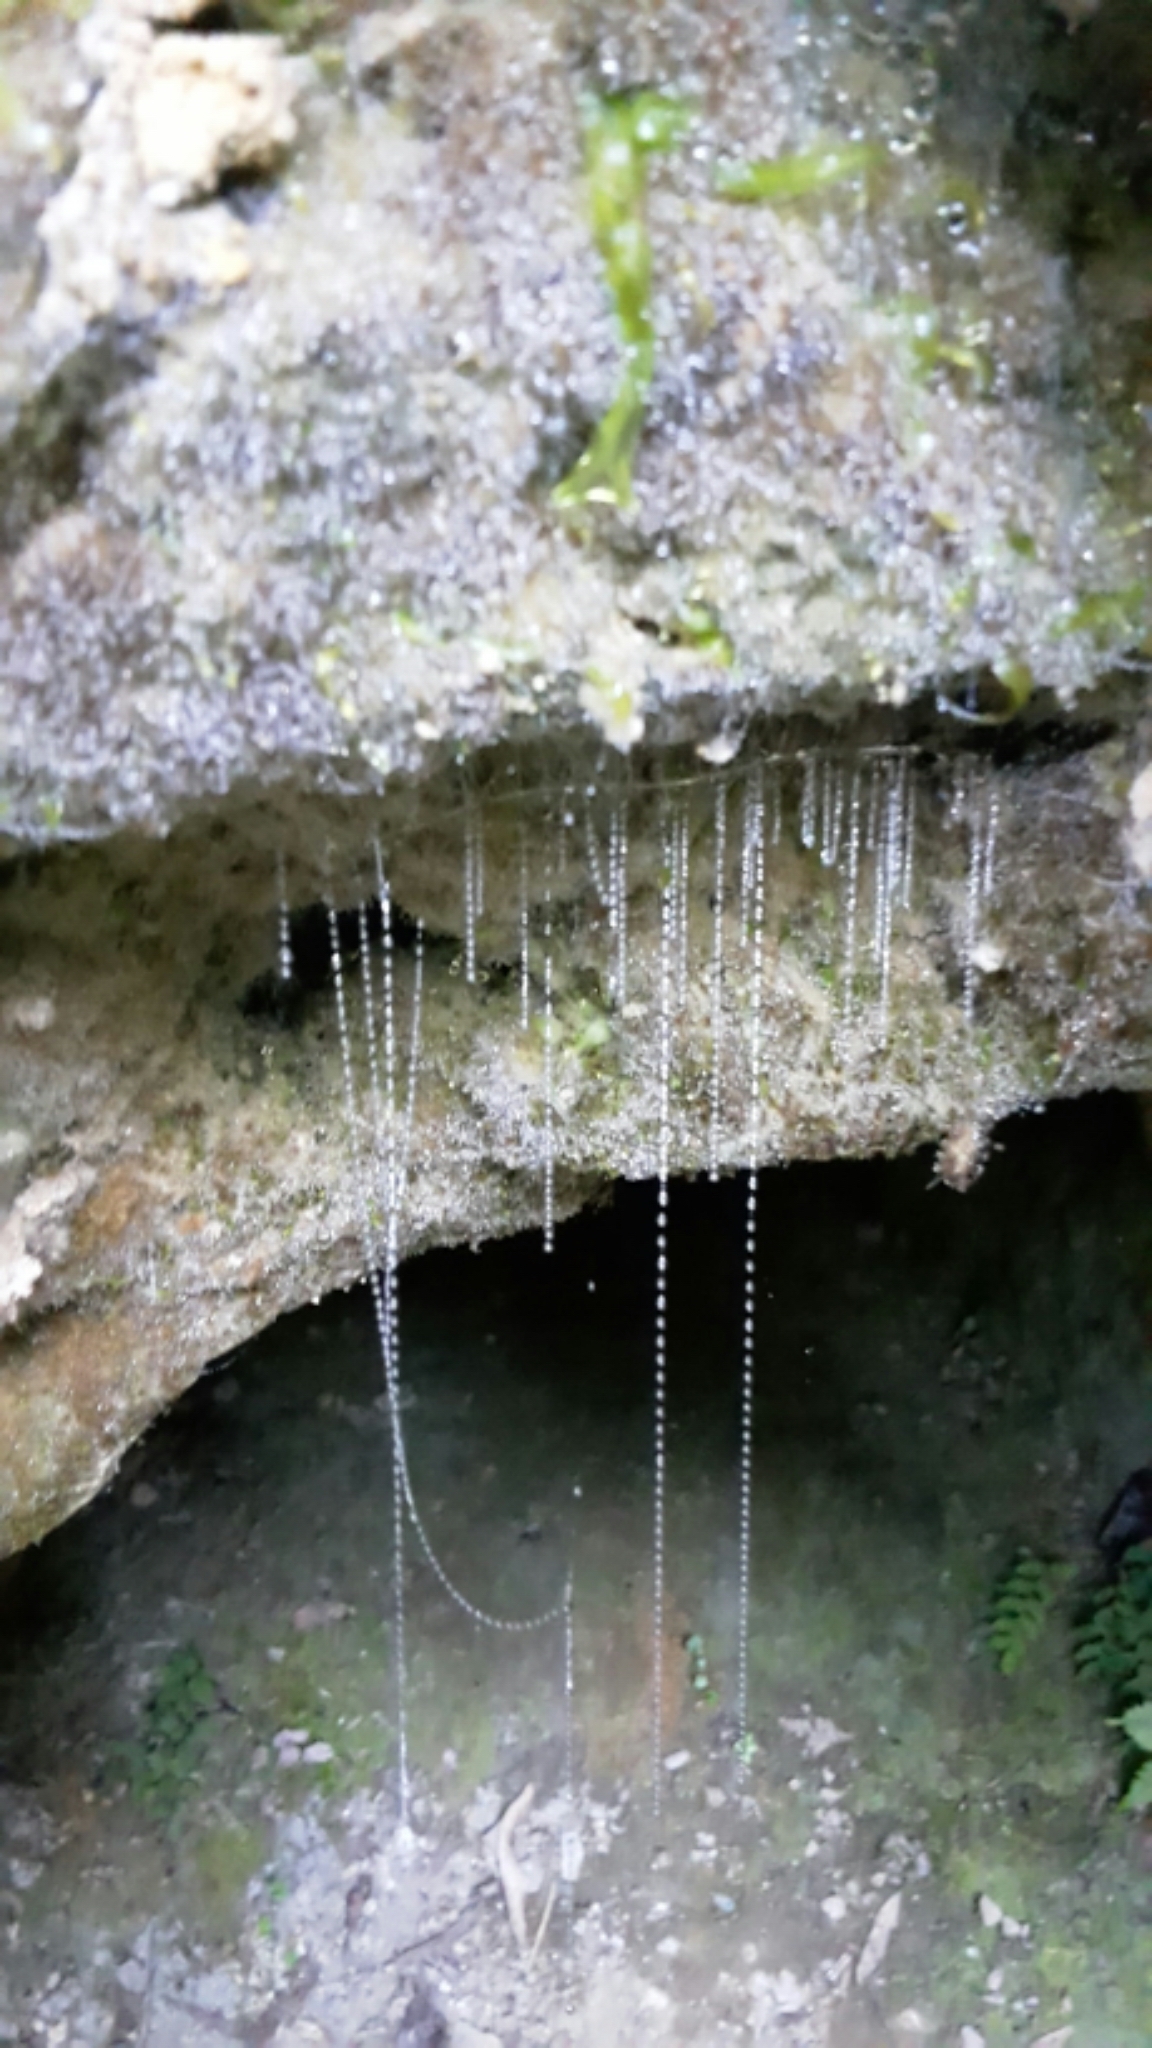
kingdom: Animalia
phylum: Arthropoda
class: Insecta
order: Diptera
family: Keroplatidae
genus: Arachnocampa
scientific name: Arachnocampa luminosa
